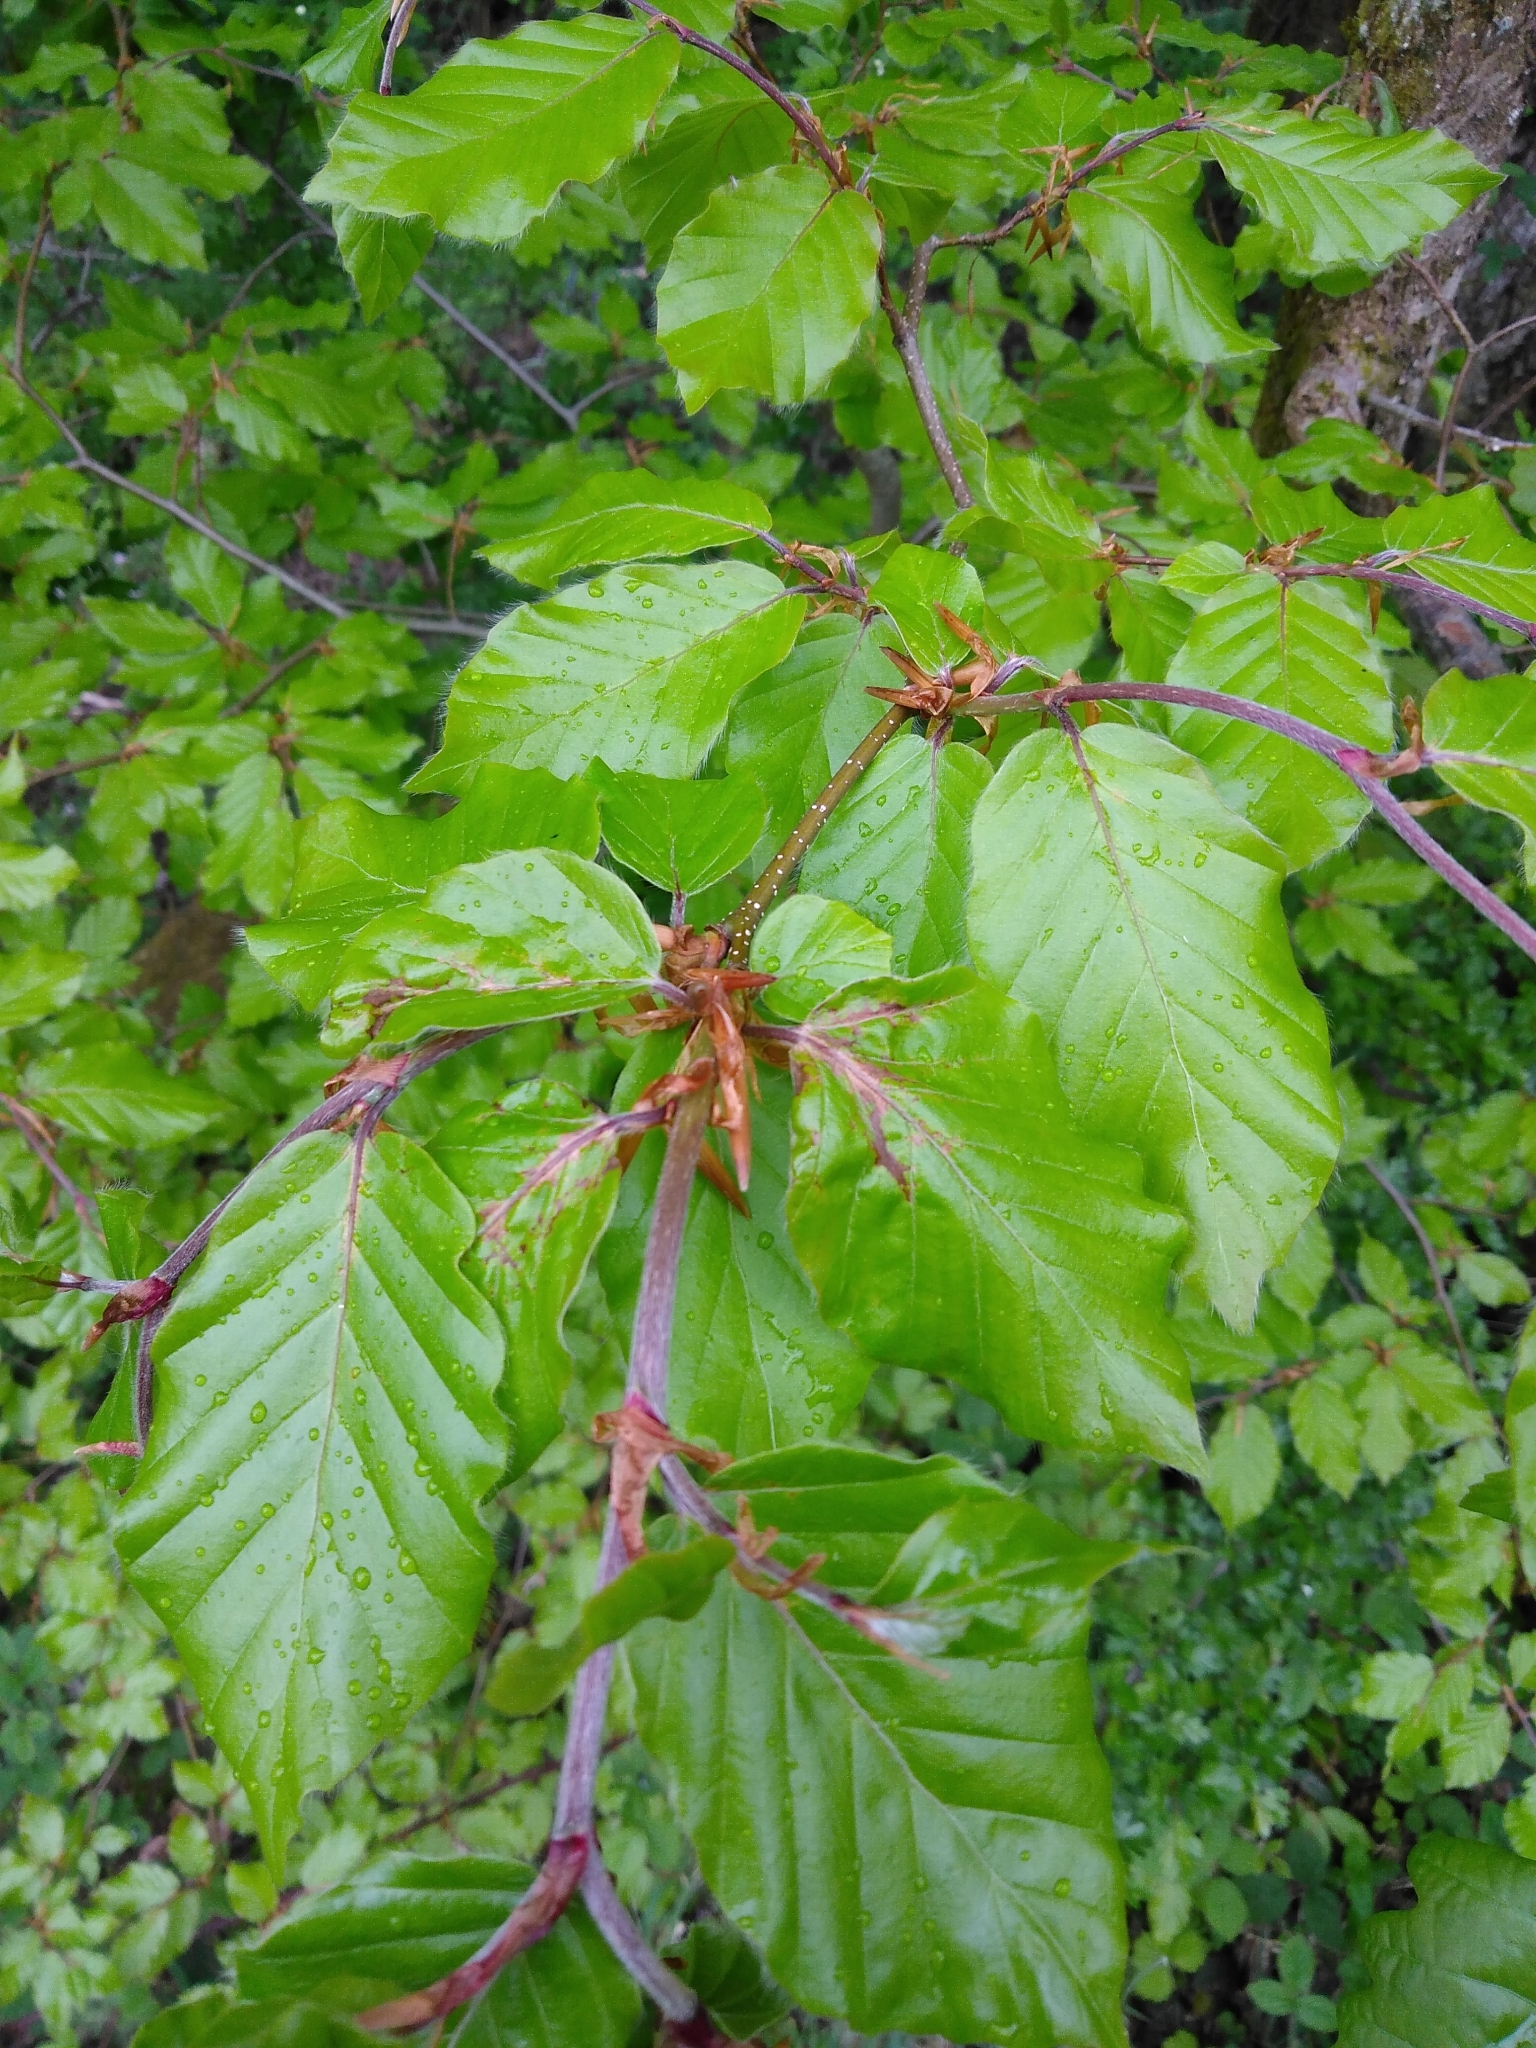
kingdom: Plantae
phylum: Tracheophyta
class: Magnoliopsida
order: Fagales
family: Fagaceae
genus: Fagus
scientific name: Fagus sylvatica
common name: Beech
